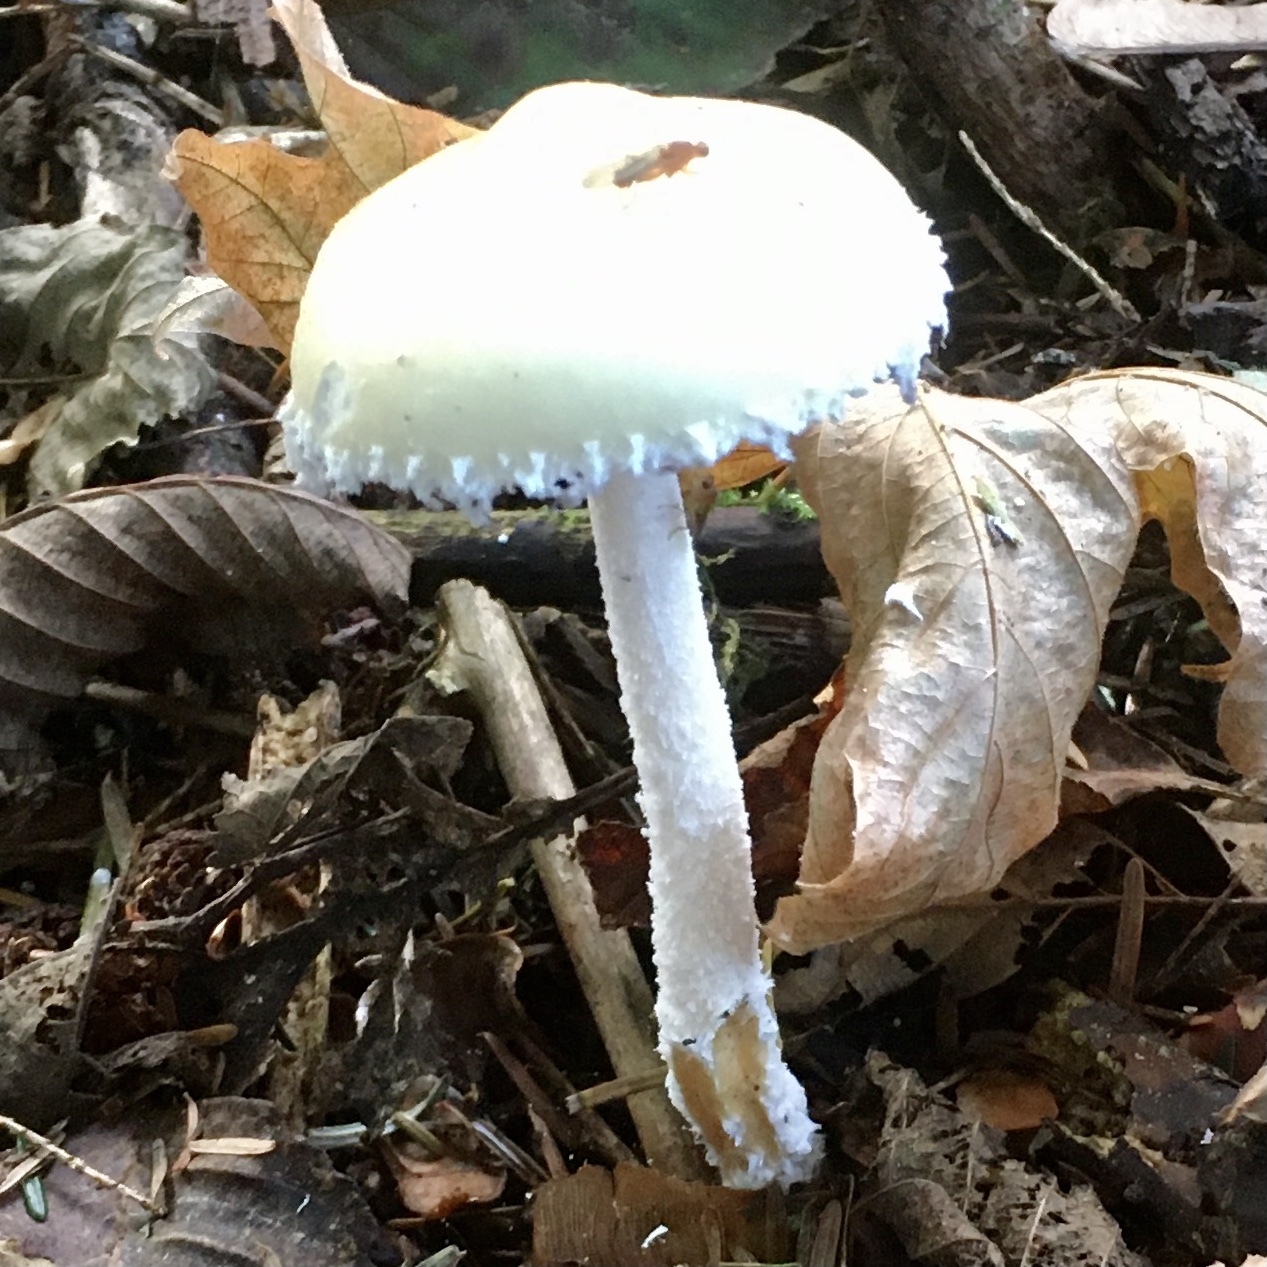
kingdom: Fungi
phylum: Basidiomycota
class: Agaricomycetes
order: Agaricales
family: Strophariaceae
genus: Stropharia
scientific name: Stropharia ambigua
